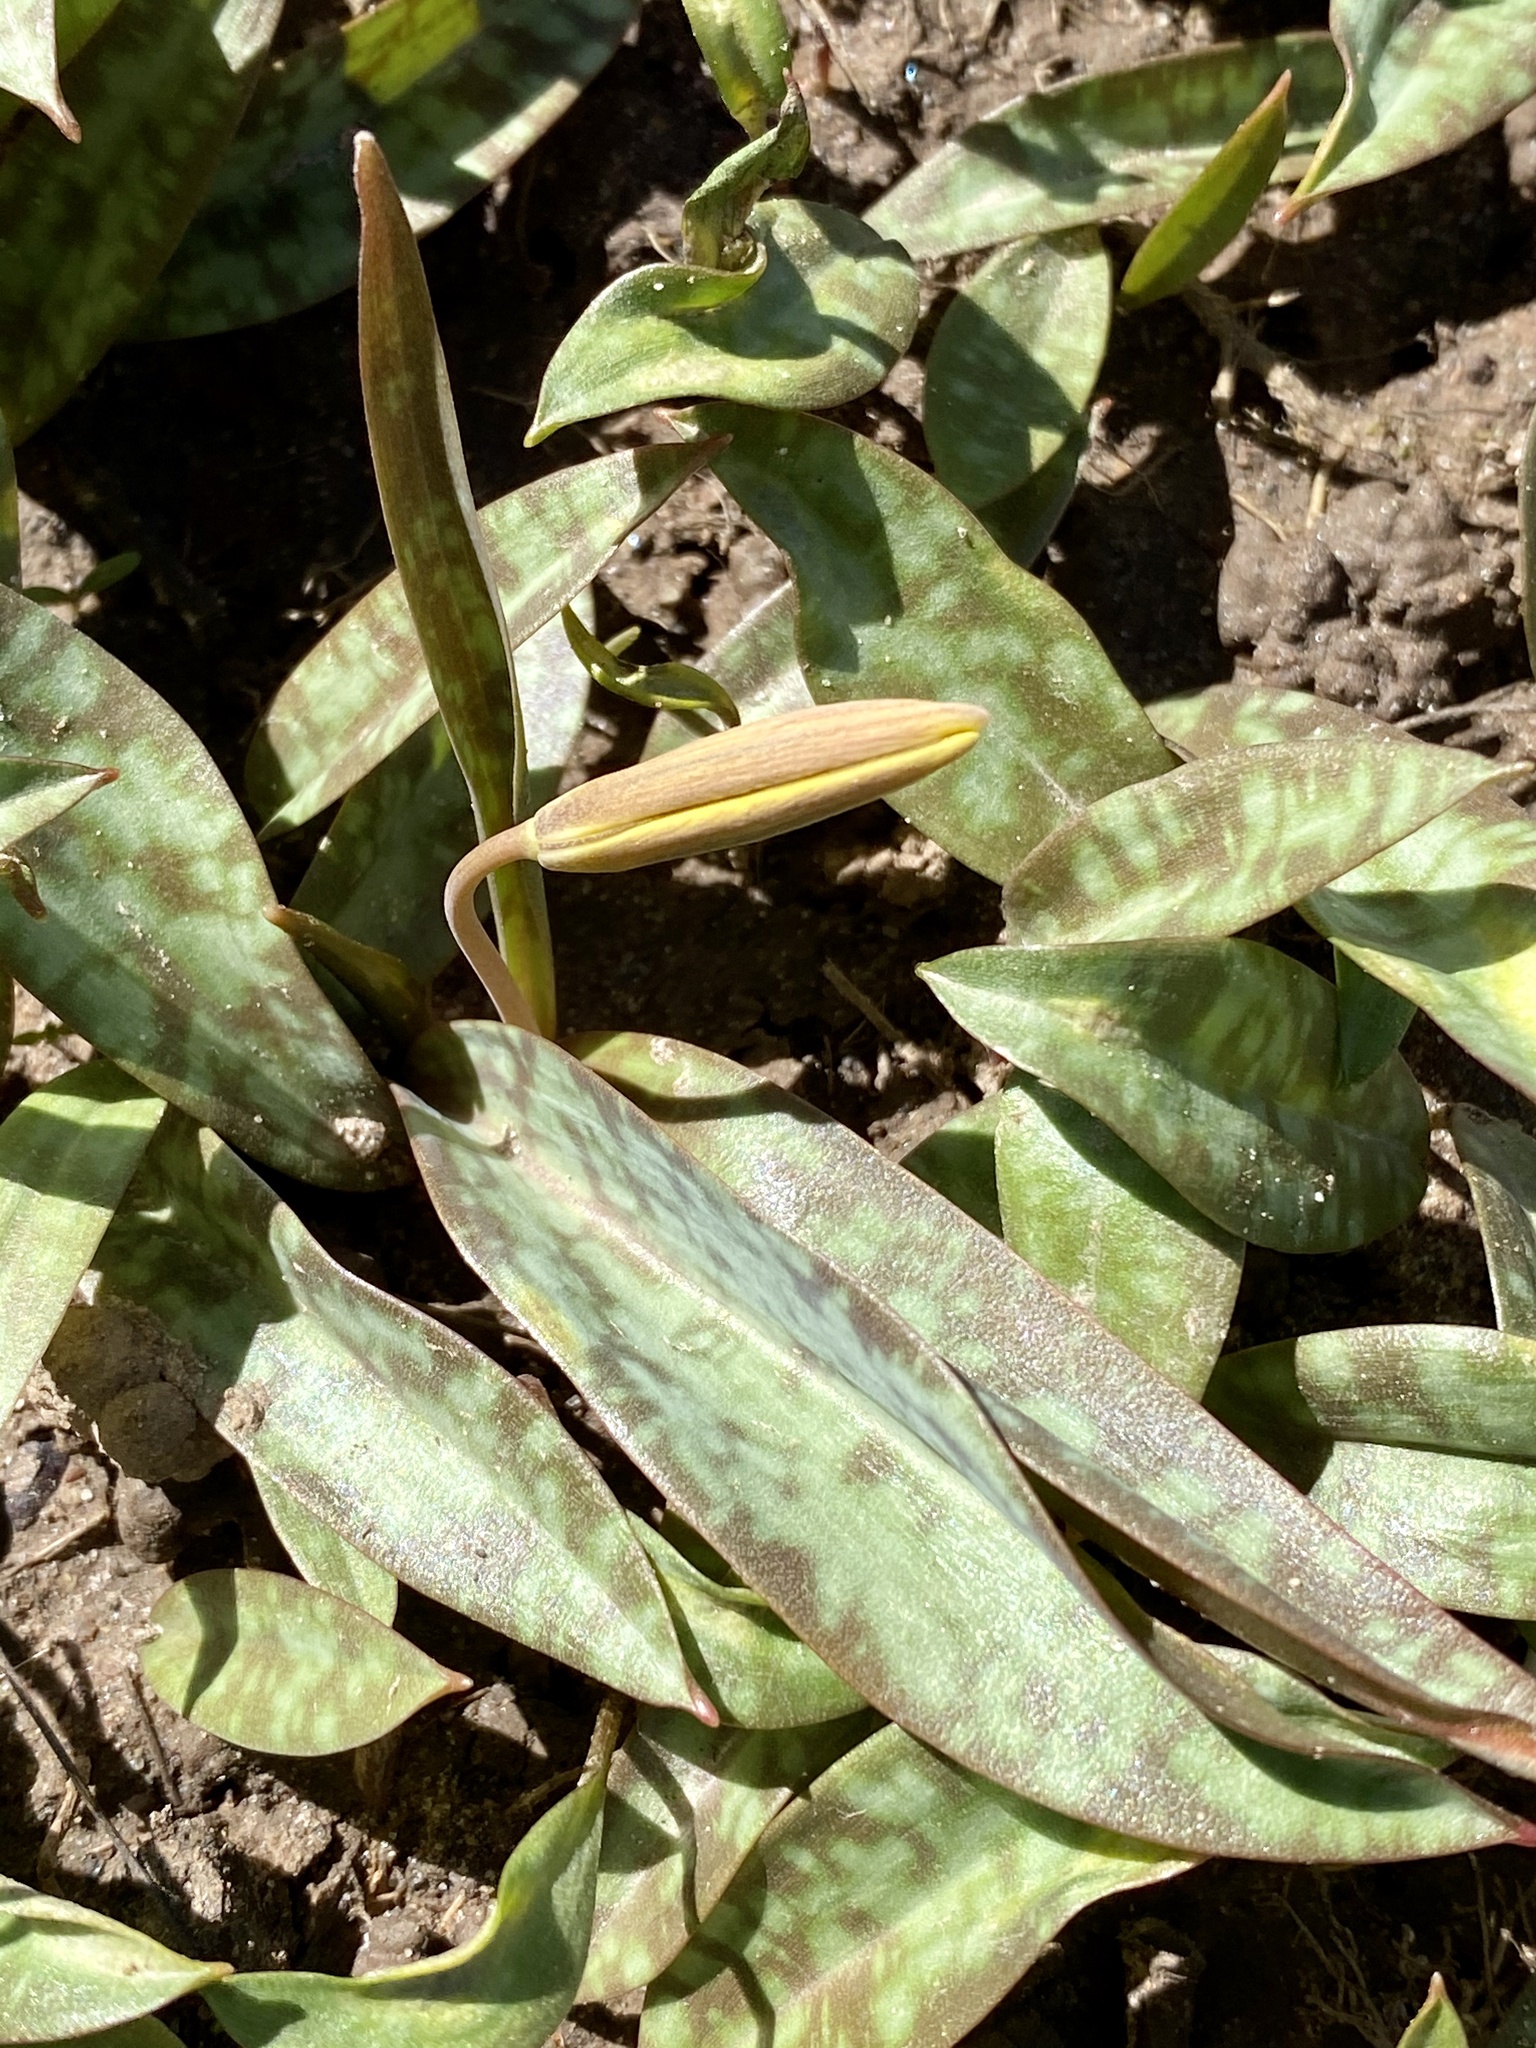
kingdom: Plantae
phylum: Tracheophyta
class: Liliopsida
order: Liliales
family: Liliaceae
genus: Erythronium
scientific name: Erythronium americanum
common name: Yellow adder's-tongue
